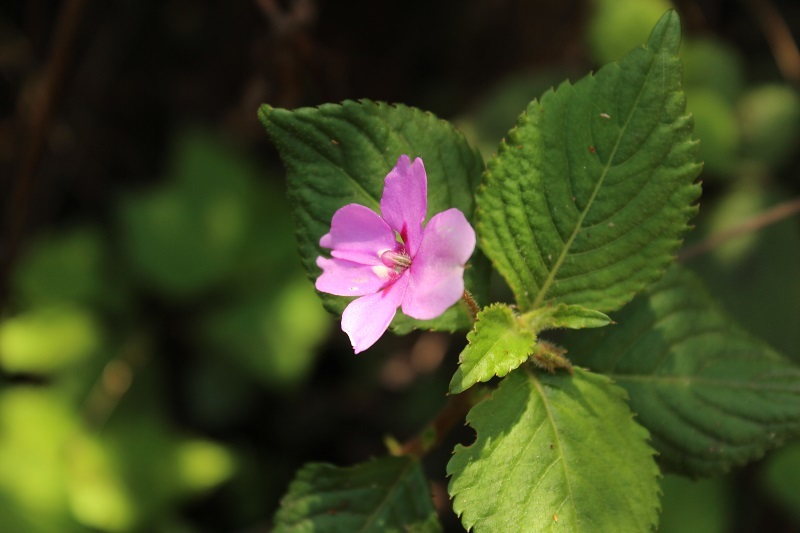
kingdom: Plantae
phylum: Tracheophyta
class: Magnoliopsida
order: Ericales
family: Balsaminaceae
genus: Impatiens
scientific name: Impatiens sylvicola
